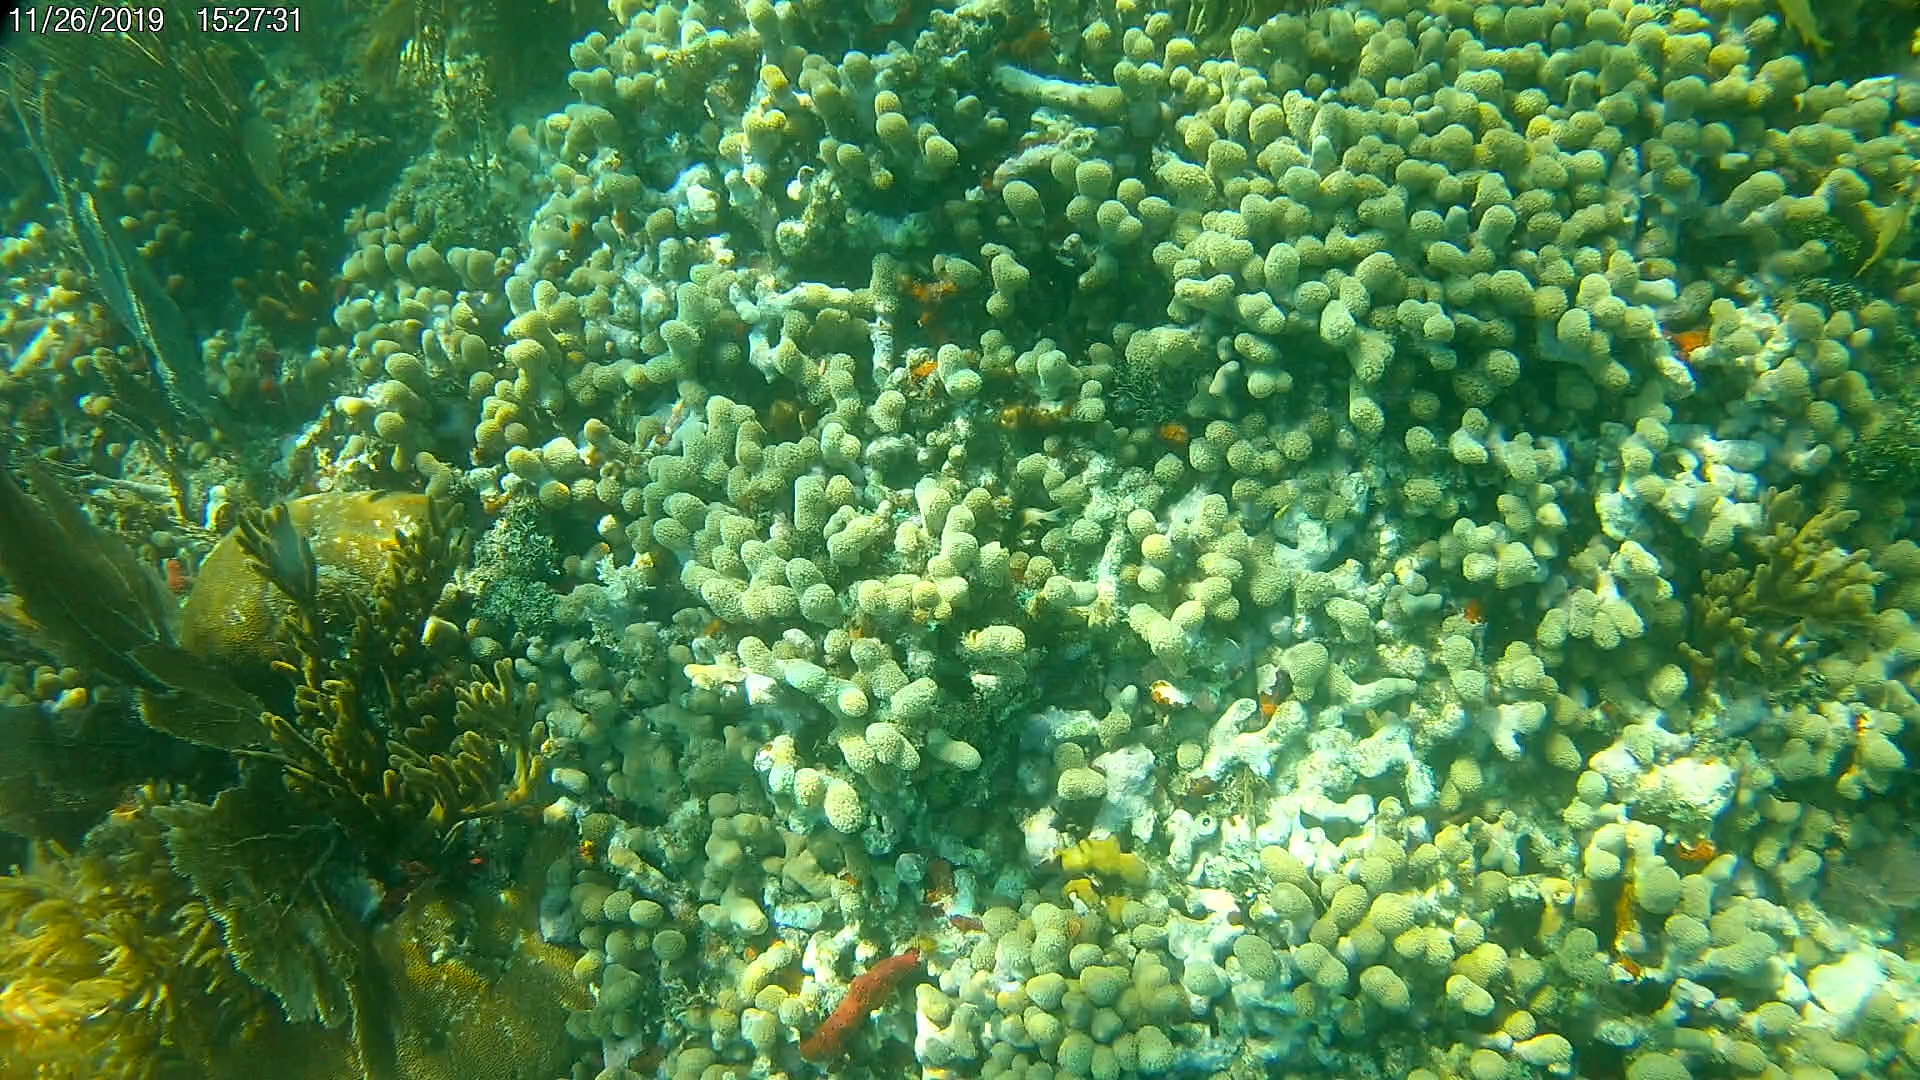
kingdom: Animalia
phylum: Chordata
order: Perciformes
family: Pomacentridae
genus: Stegastes
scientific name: Stegastes partitus
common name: Bicolor damselfish
